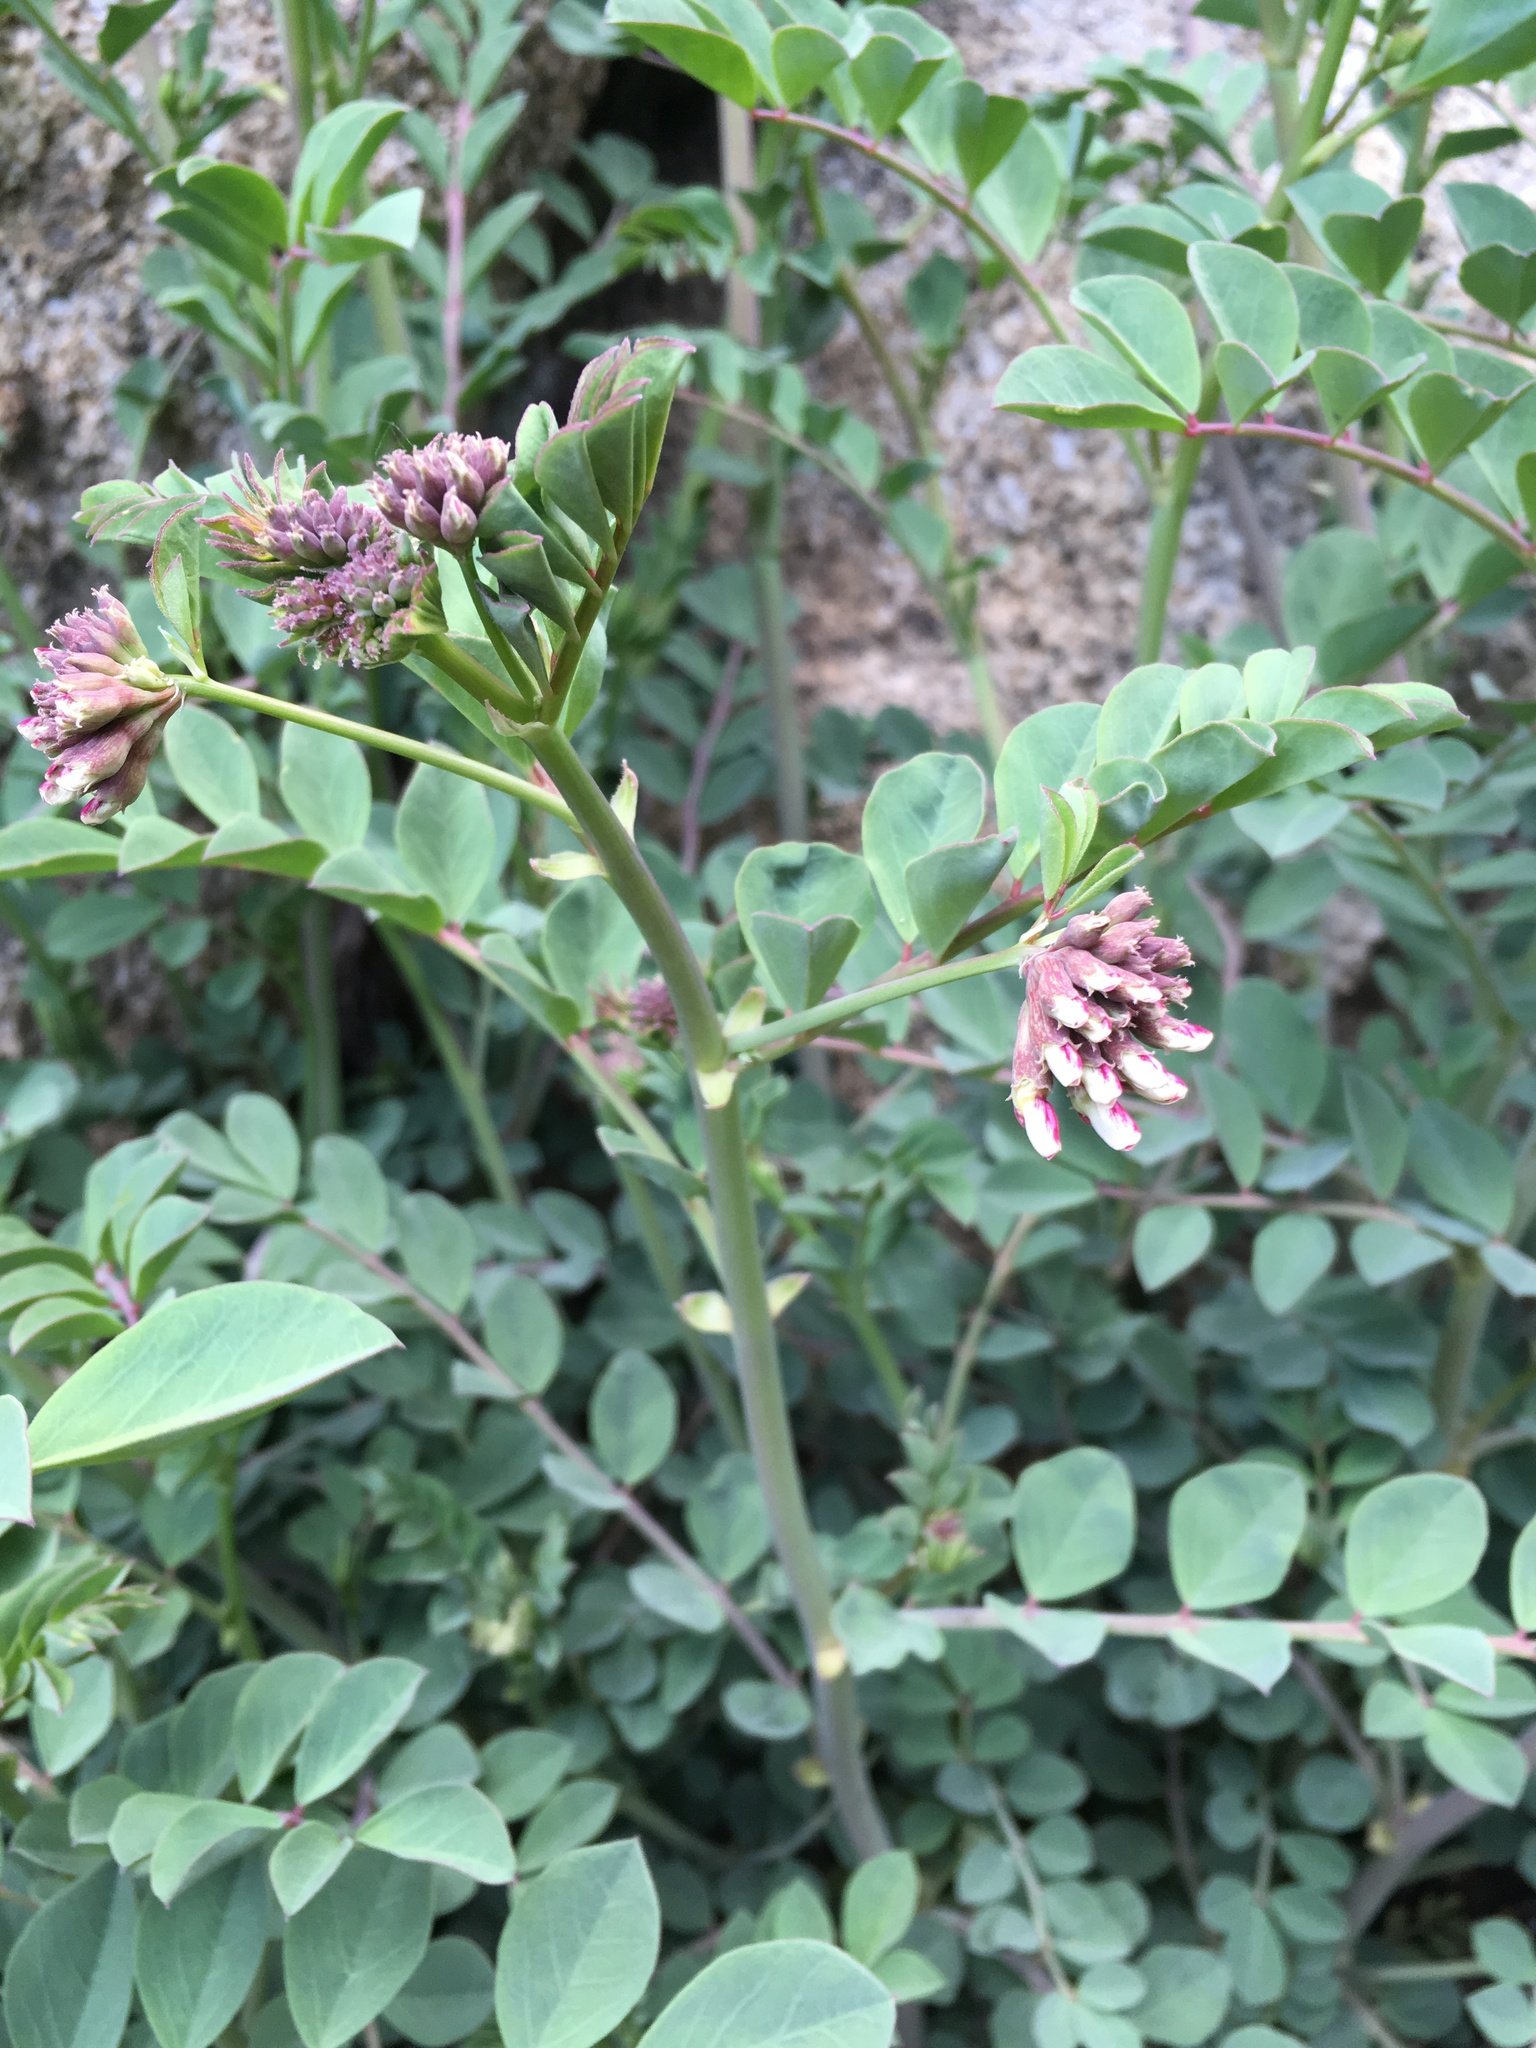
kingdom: Plantae
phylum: Tracheophyta
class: Magnoliopsida
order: Fabales
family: Fabaceae
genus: Hosackia
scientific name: Hosackia crassifolia
